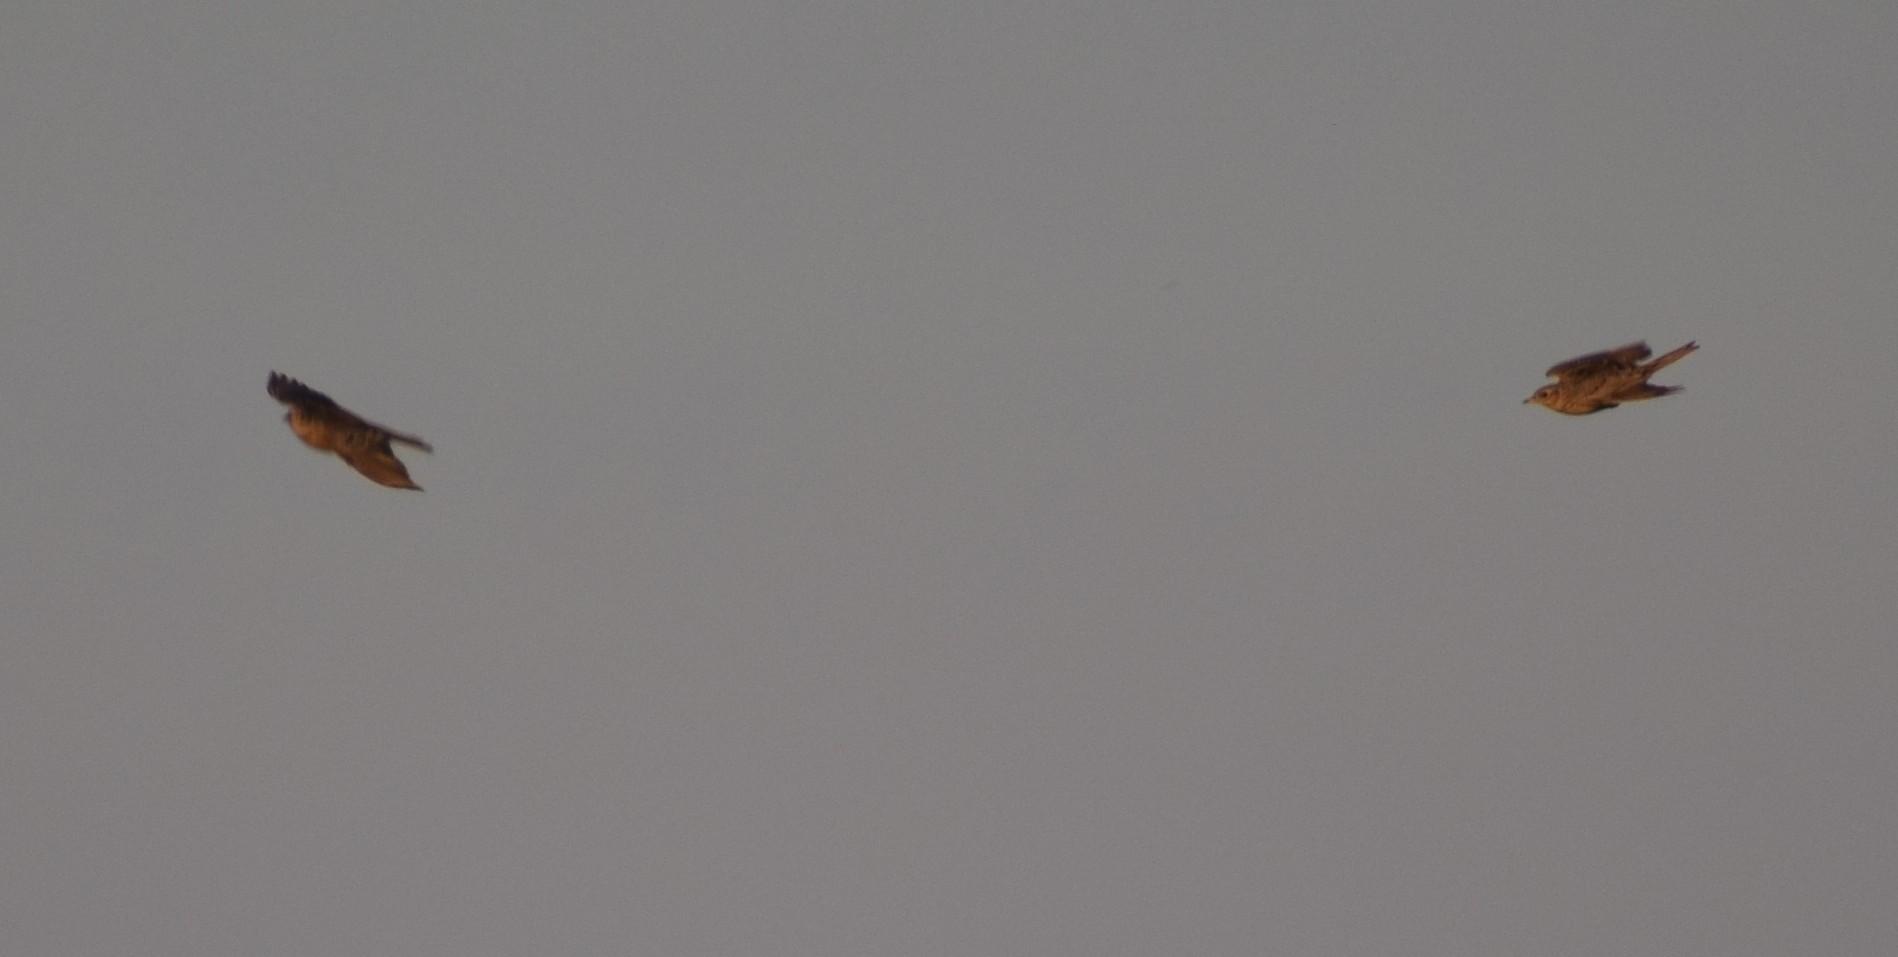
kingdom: Animalia
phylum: Chordata
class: Aves
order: Passeriformes
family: Alaudidae
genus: Alauda
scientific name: Alauda arvensis
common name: Eurasian skylark
